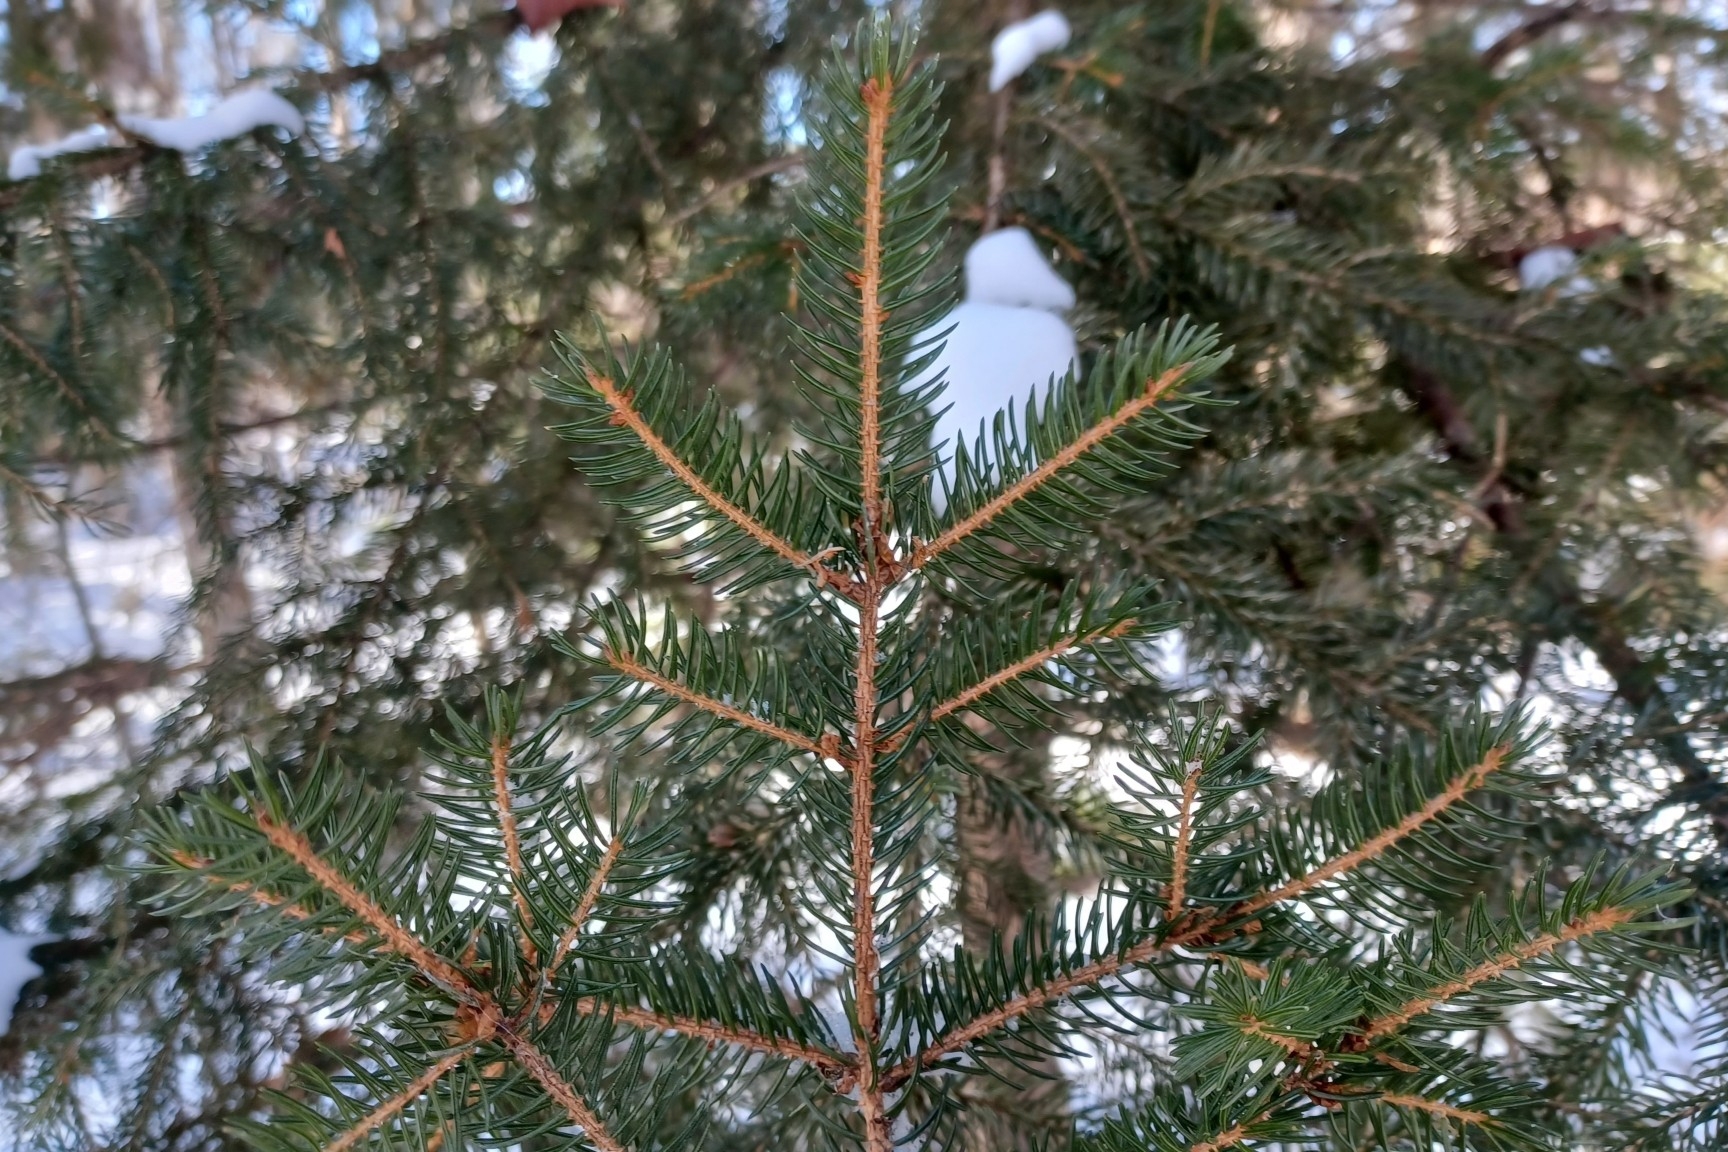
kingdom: Plantae
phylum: Tracheophyta
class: Pinopsida
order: Pinales
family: Pinaceae
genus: Picea
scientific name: Picea rubens
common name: Red spruce
